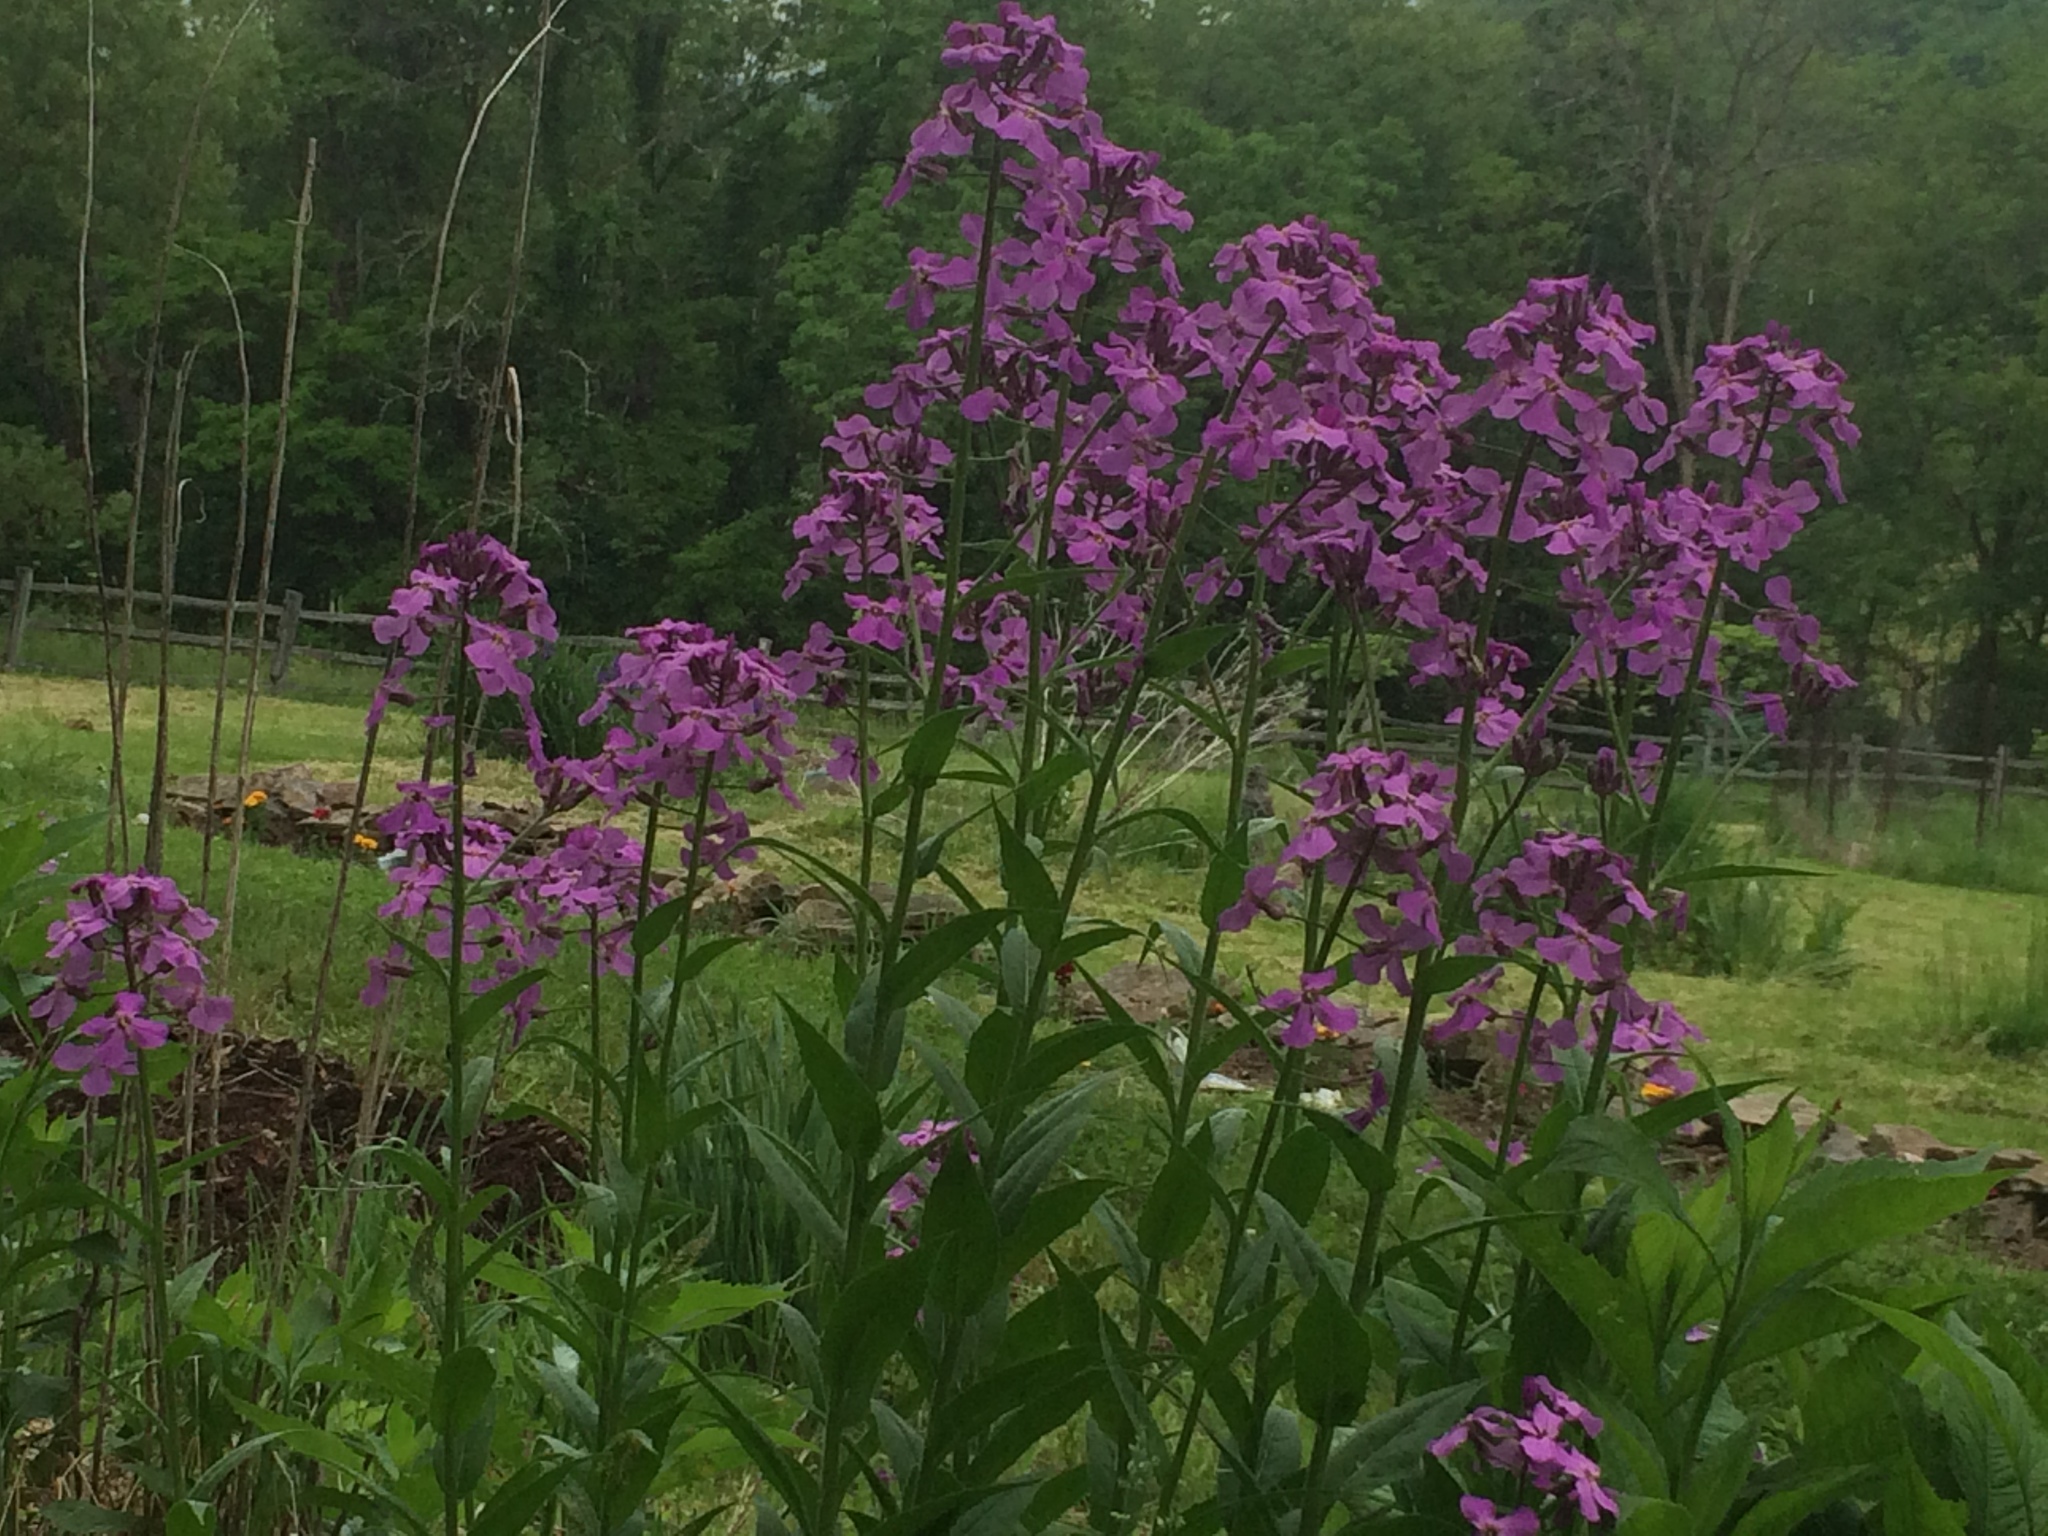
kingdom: Plantae
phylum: Tracheophyta
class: Magnoliopsida
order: Brassicales
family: Brassicaceae
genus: Hesperis
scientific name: Hesperis matronalis
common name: Dame's-violet
